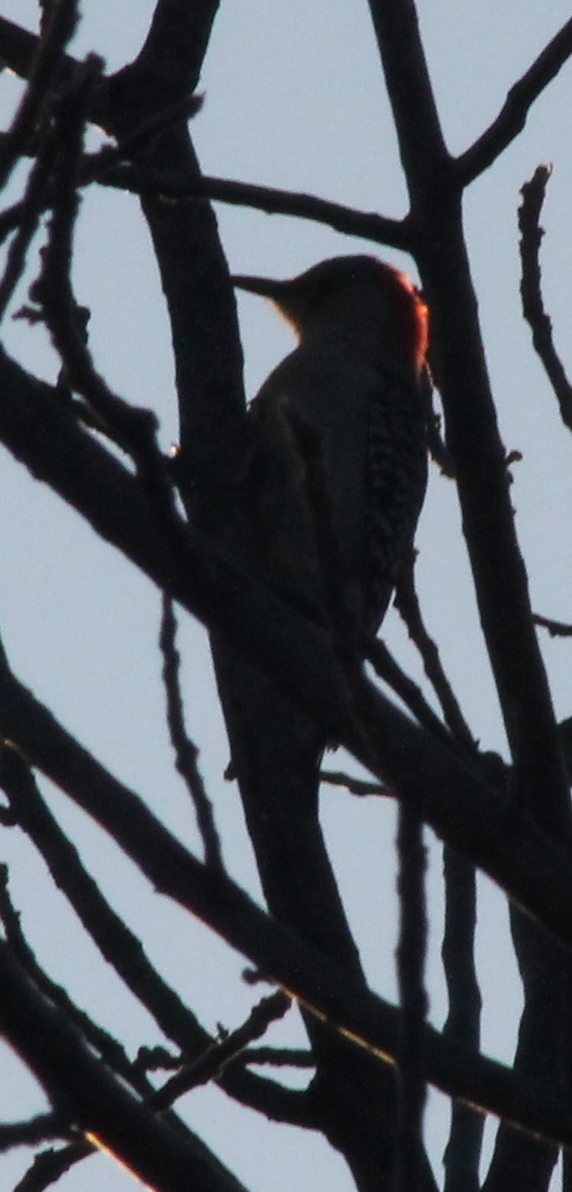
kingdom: Animalia
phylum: Chordata
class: Aves
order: Piciformes
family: Picidae
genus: Melanerpes
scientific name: Melanerpes carolinus
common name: Red-bellied woodpecker
